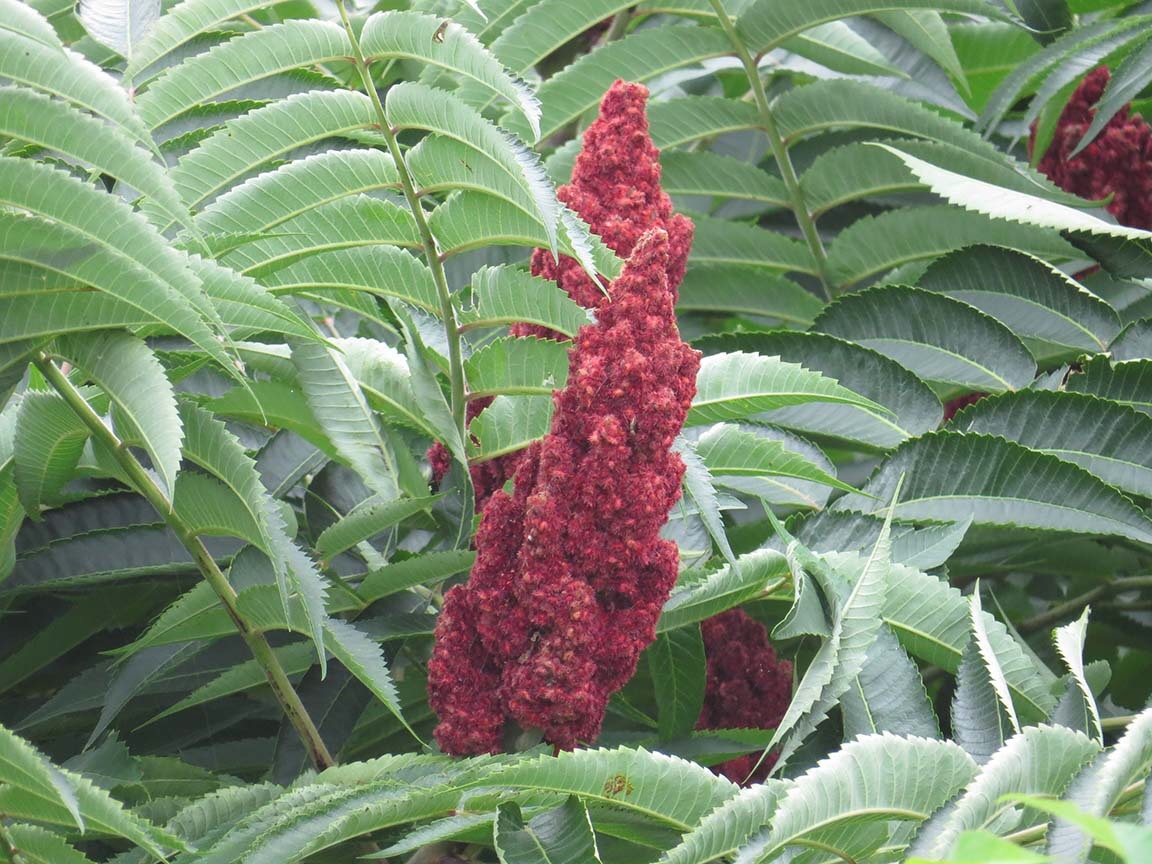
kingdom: Plantae
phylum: Tracheophyta
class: Magnoliopsida
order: Sapindales
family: Anacardiaceae
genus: Rhus
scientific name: Rhus typhina
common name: Staghorn sumac
